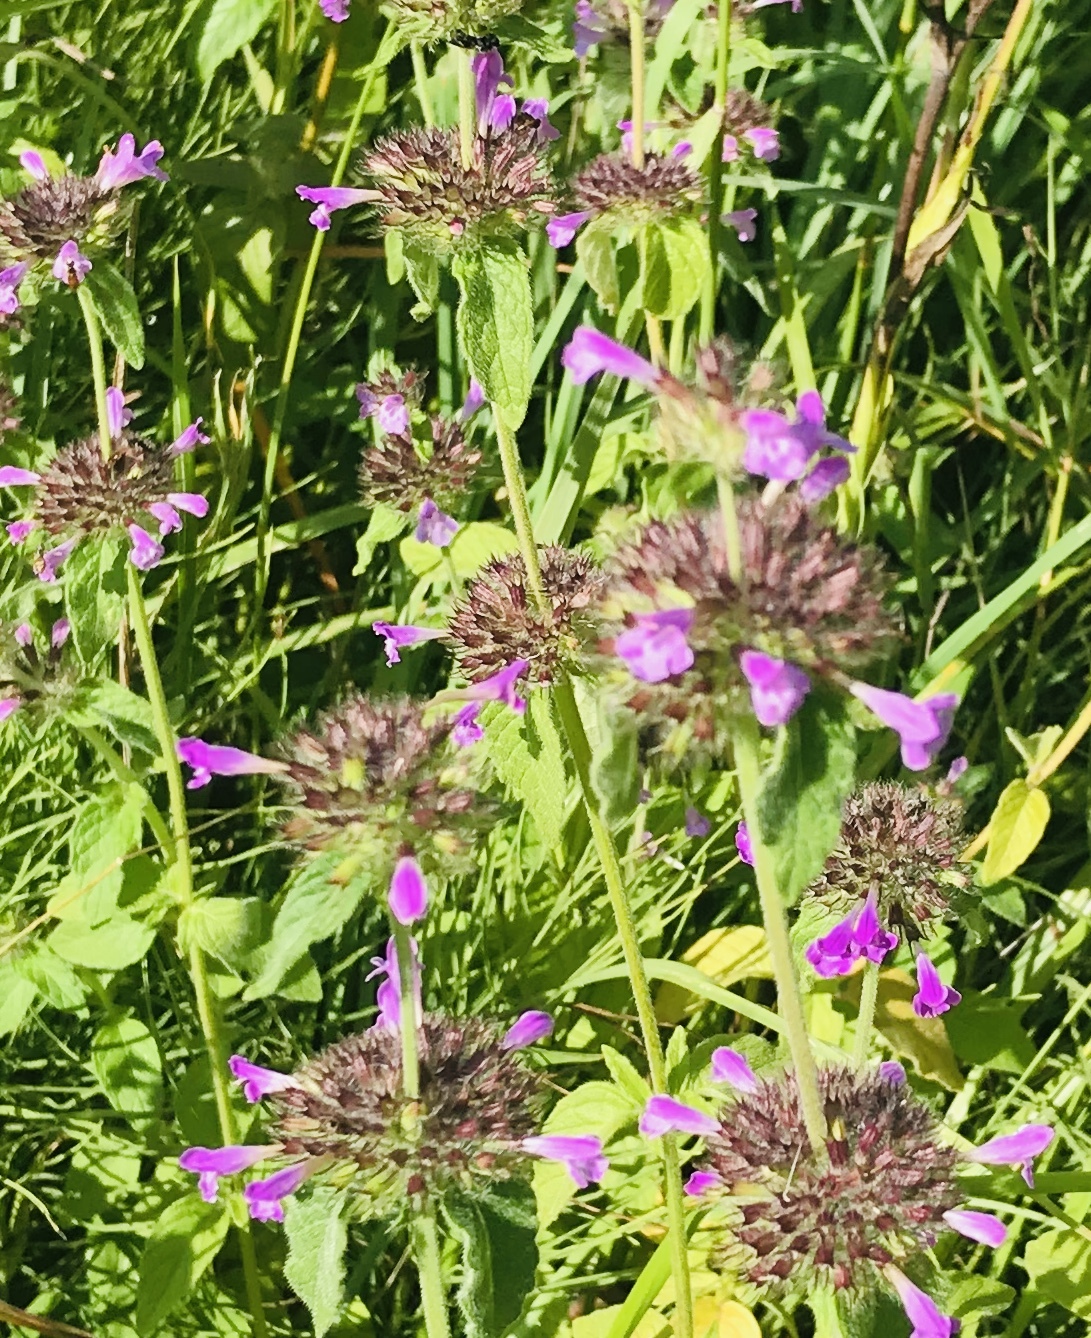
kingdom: Plantae
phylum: Tracheophyta
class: Magnoliopsida
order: Lamiales
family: Lamiaceae
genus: Clinopodium
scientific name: Clinopodium vulgare
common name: Wild basil
